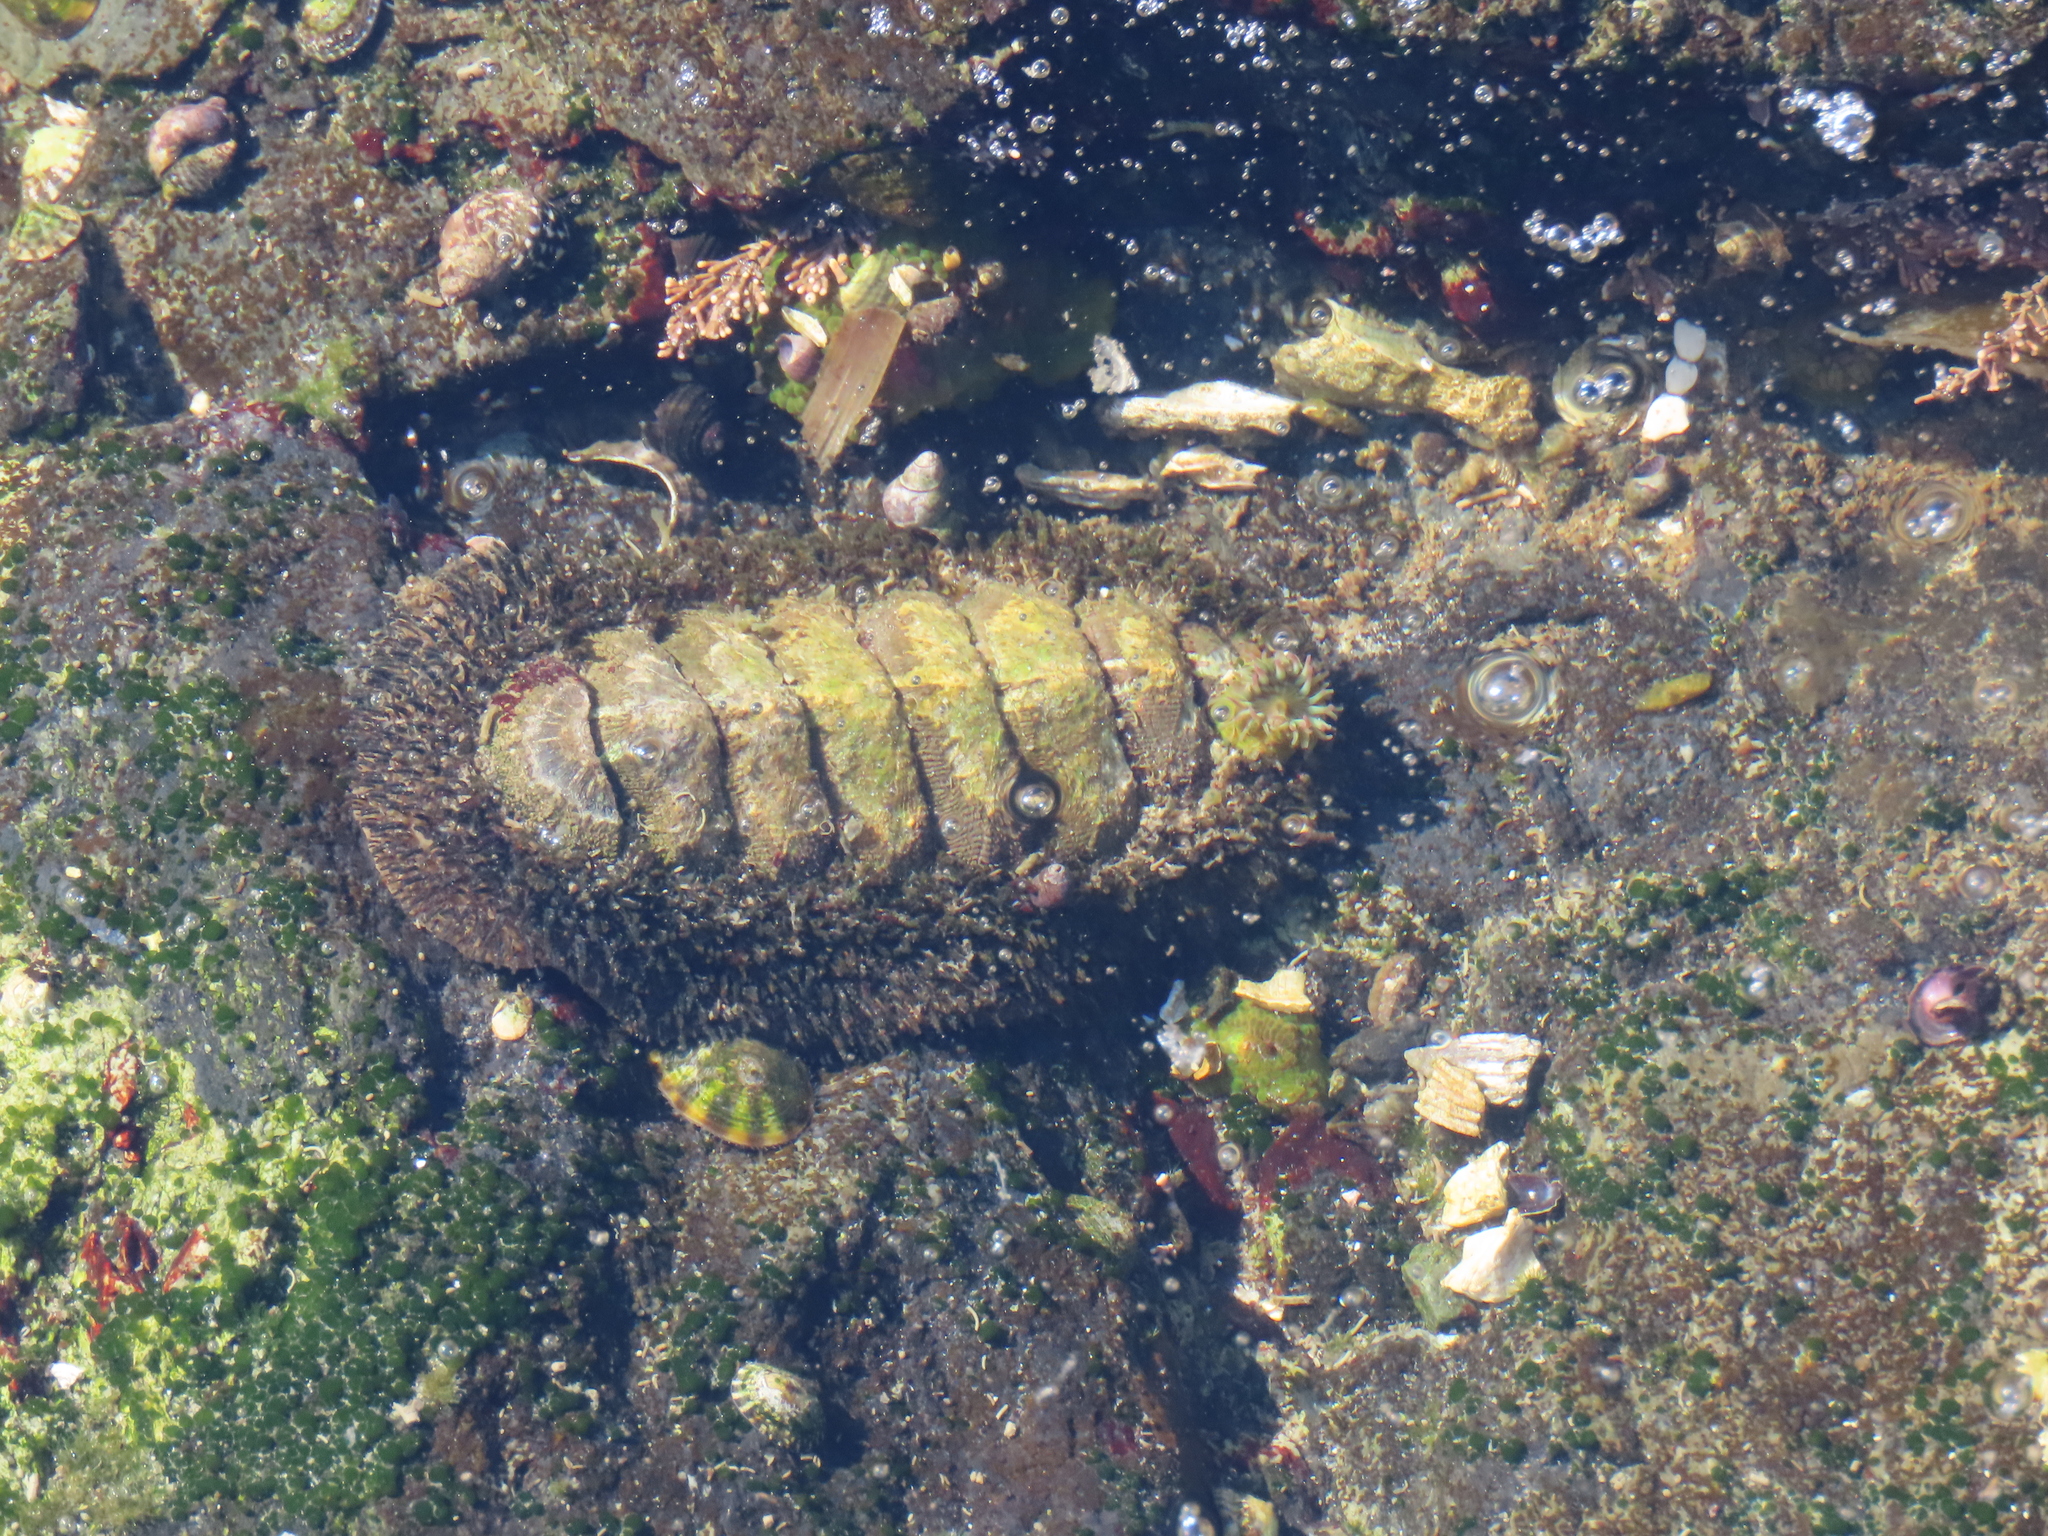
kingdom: Animalia
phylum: Mollusca
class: Polyplacophora
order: Chitonida
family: Mopaliidae
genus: Mopalia
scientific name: Mopalia muscosa
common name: Mossy chiton
